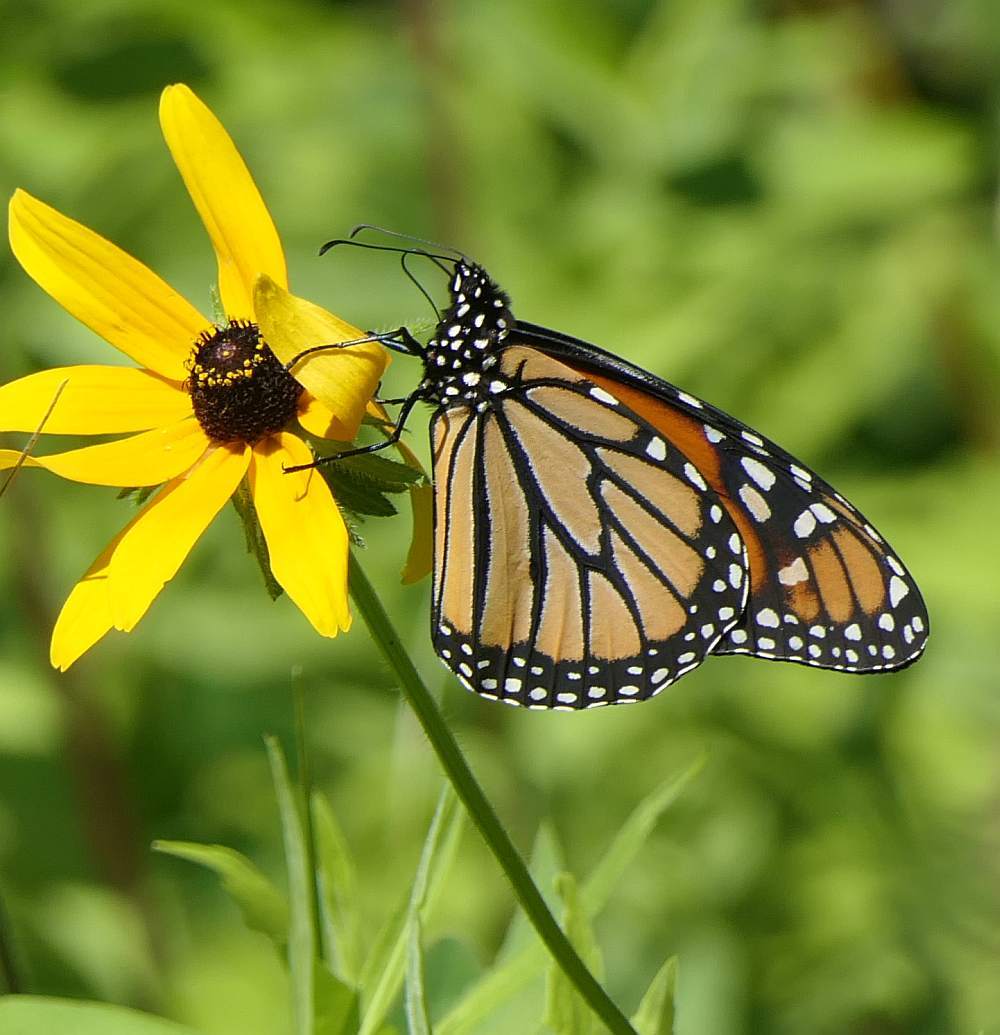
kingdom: Animalia
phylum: Arthropoda
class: Insecta
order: Lepidoptera
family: Nymphalidae
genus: Danaus
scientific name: Danaus plexippus
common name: Monarch
